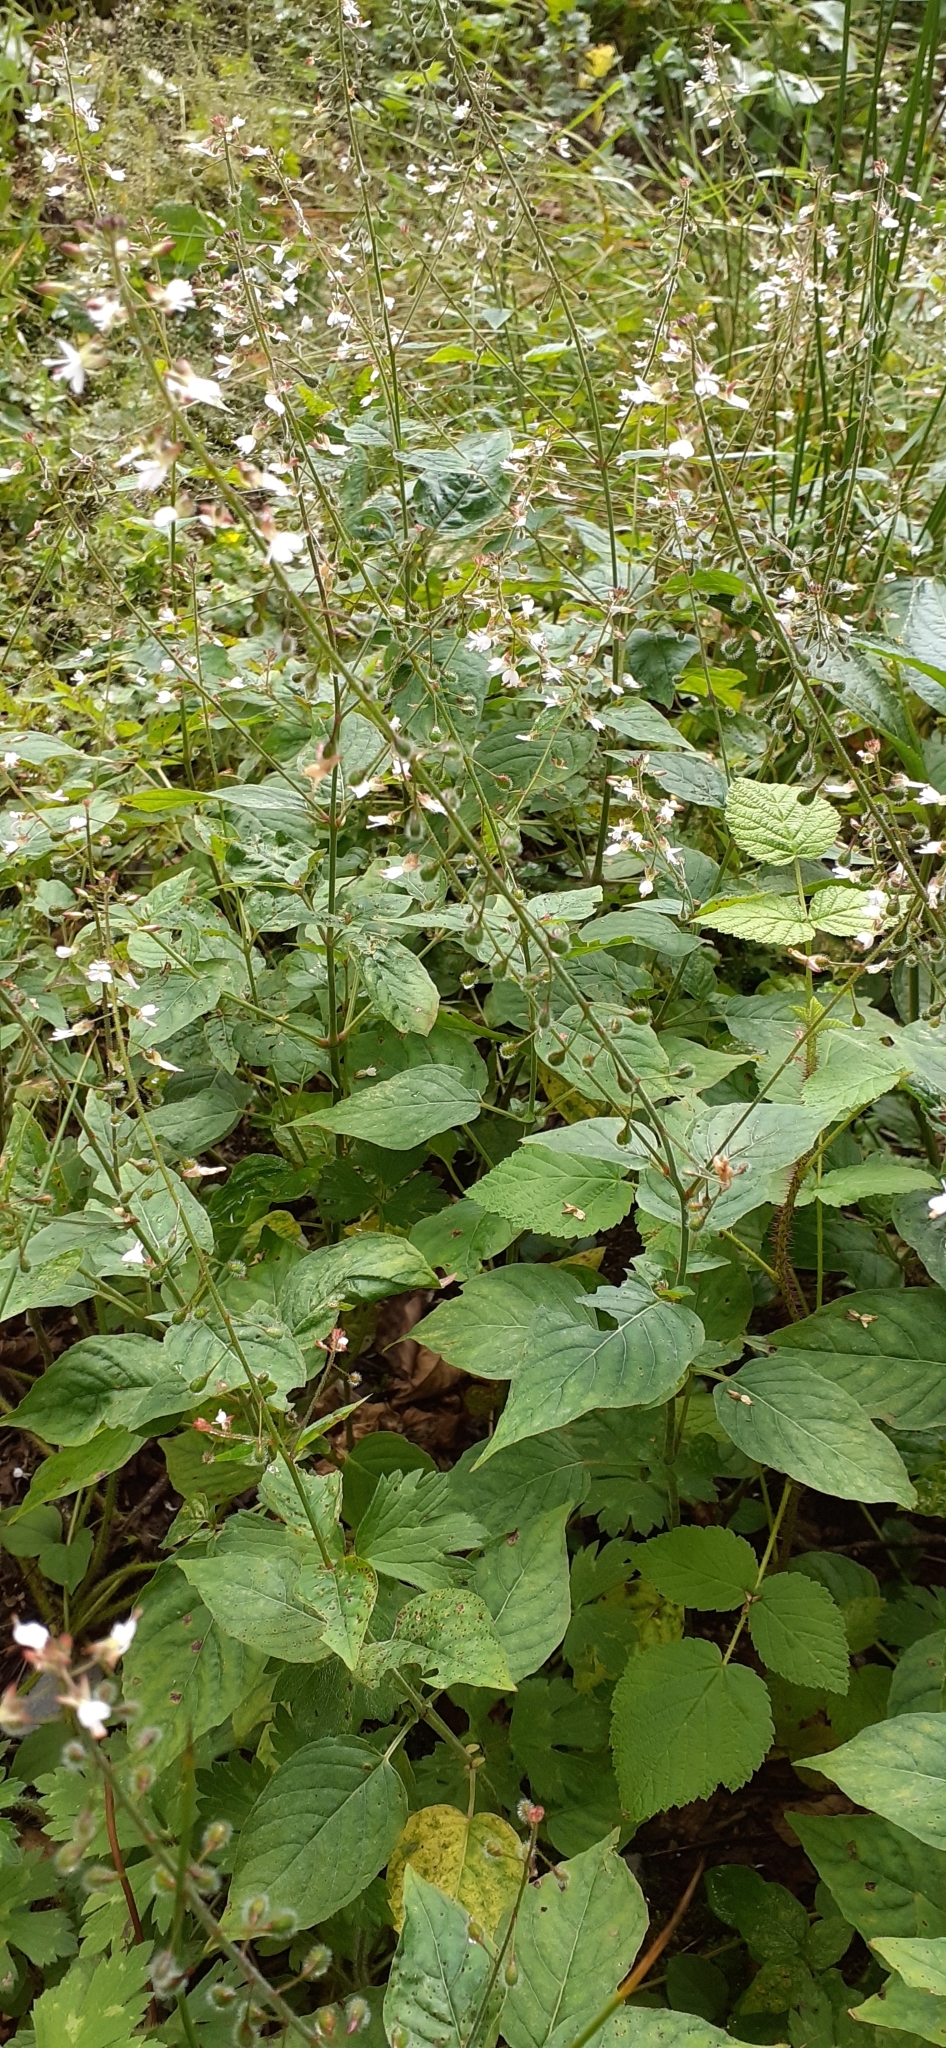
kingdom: Plantae
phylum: Tracheophyta
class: Magnoliopsida
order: Myrtales
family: Onagraceae
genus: Circaea
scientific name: Circaea lutetiana
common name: Enchanter's-nightshade
